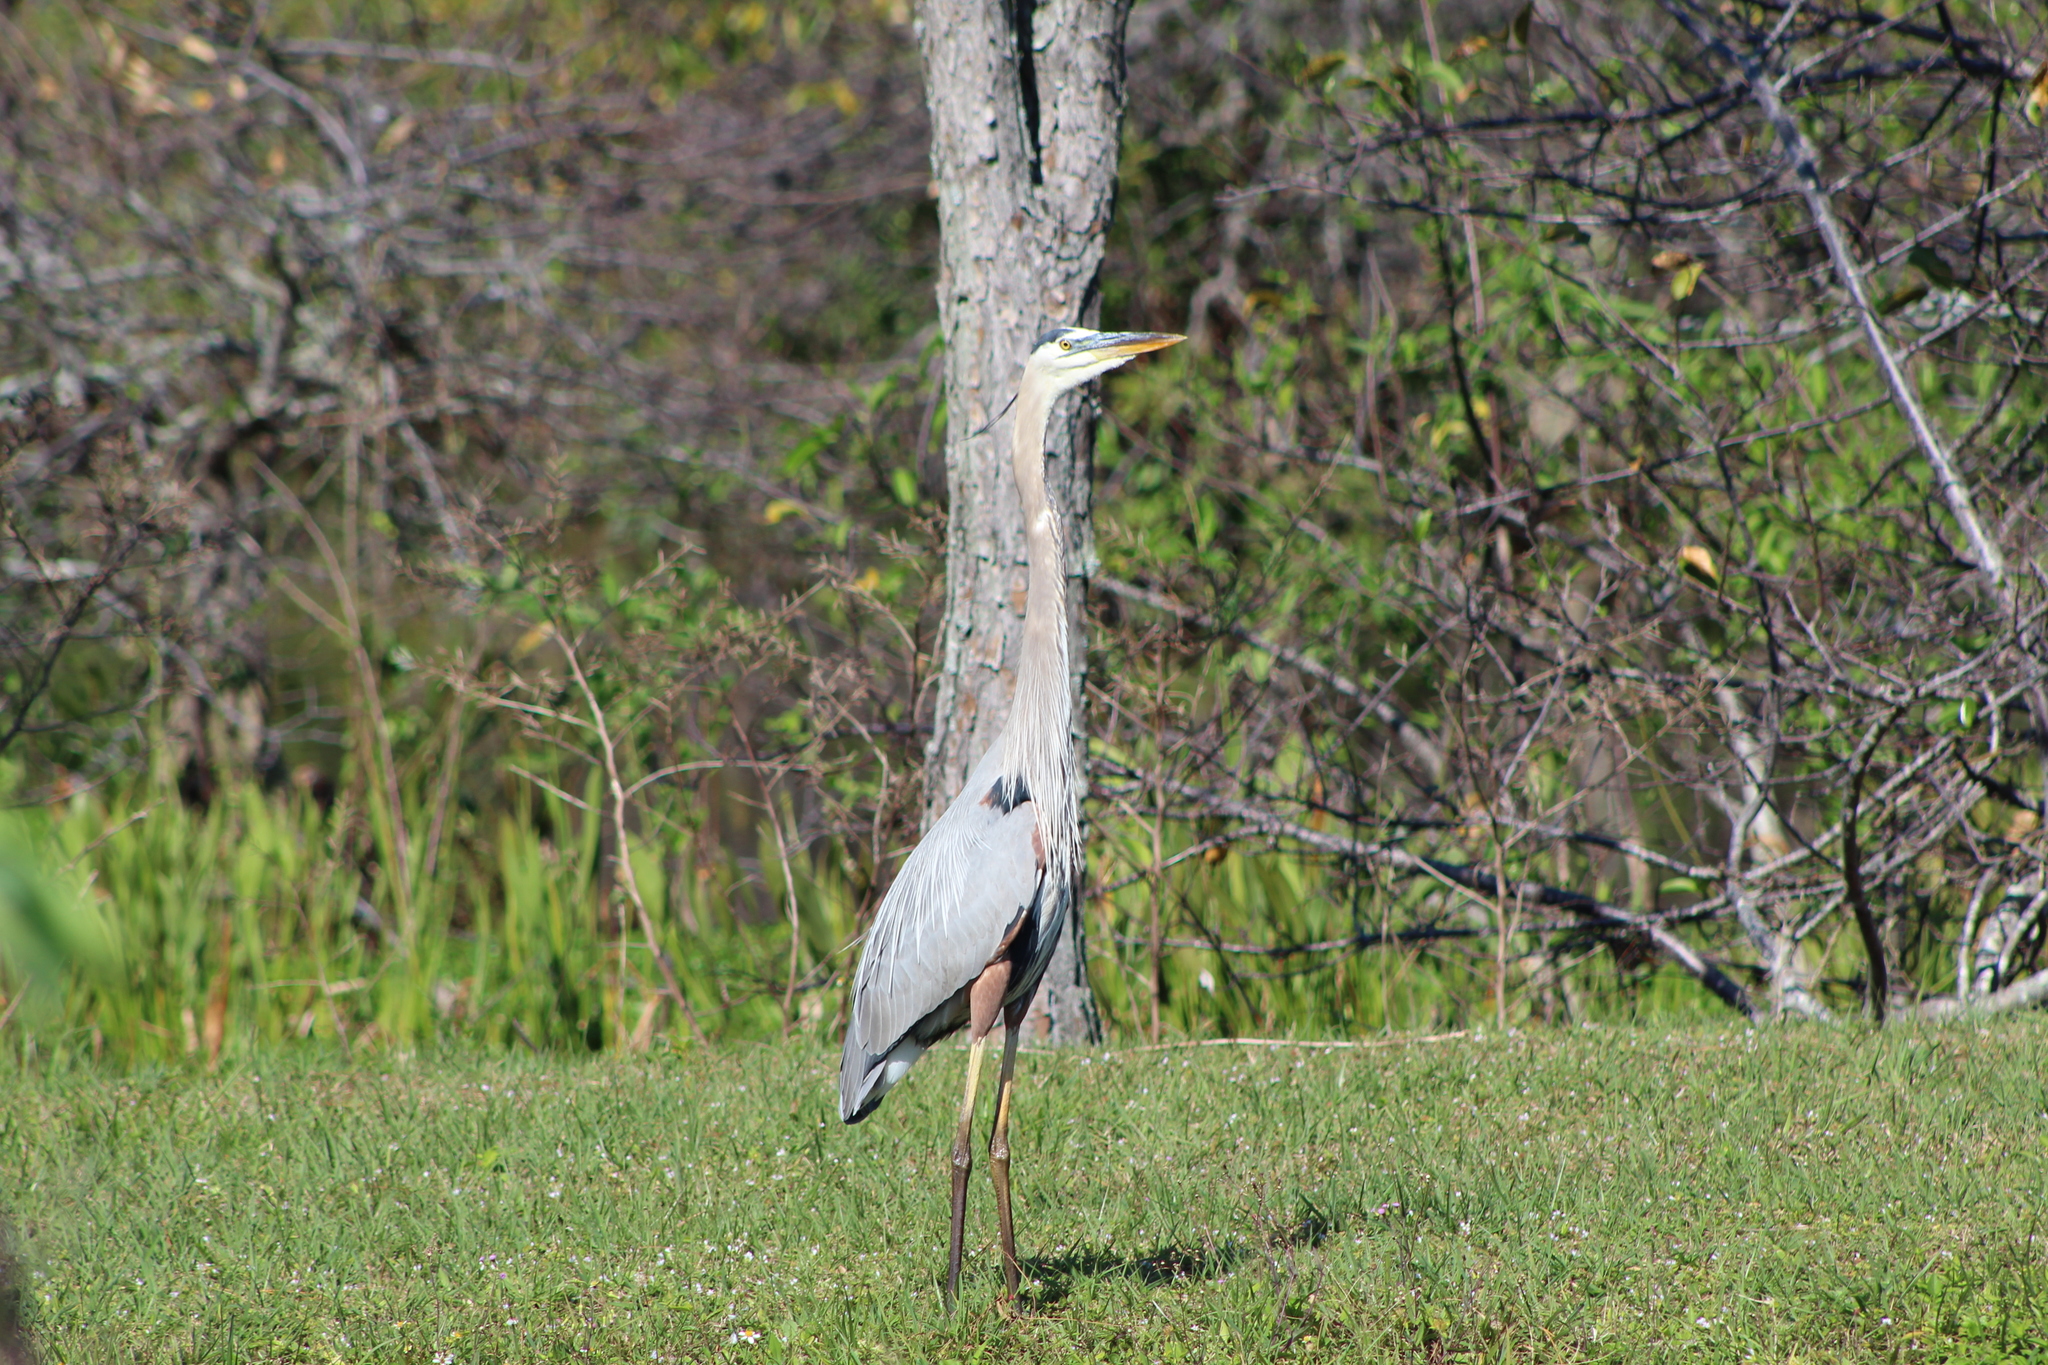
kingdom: Animalia
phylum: Chordata
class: Aves
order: Pelecaniformes
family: Ardeidae
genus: Ardea
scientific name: Ardea herodias
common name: Great blue heron
